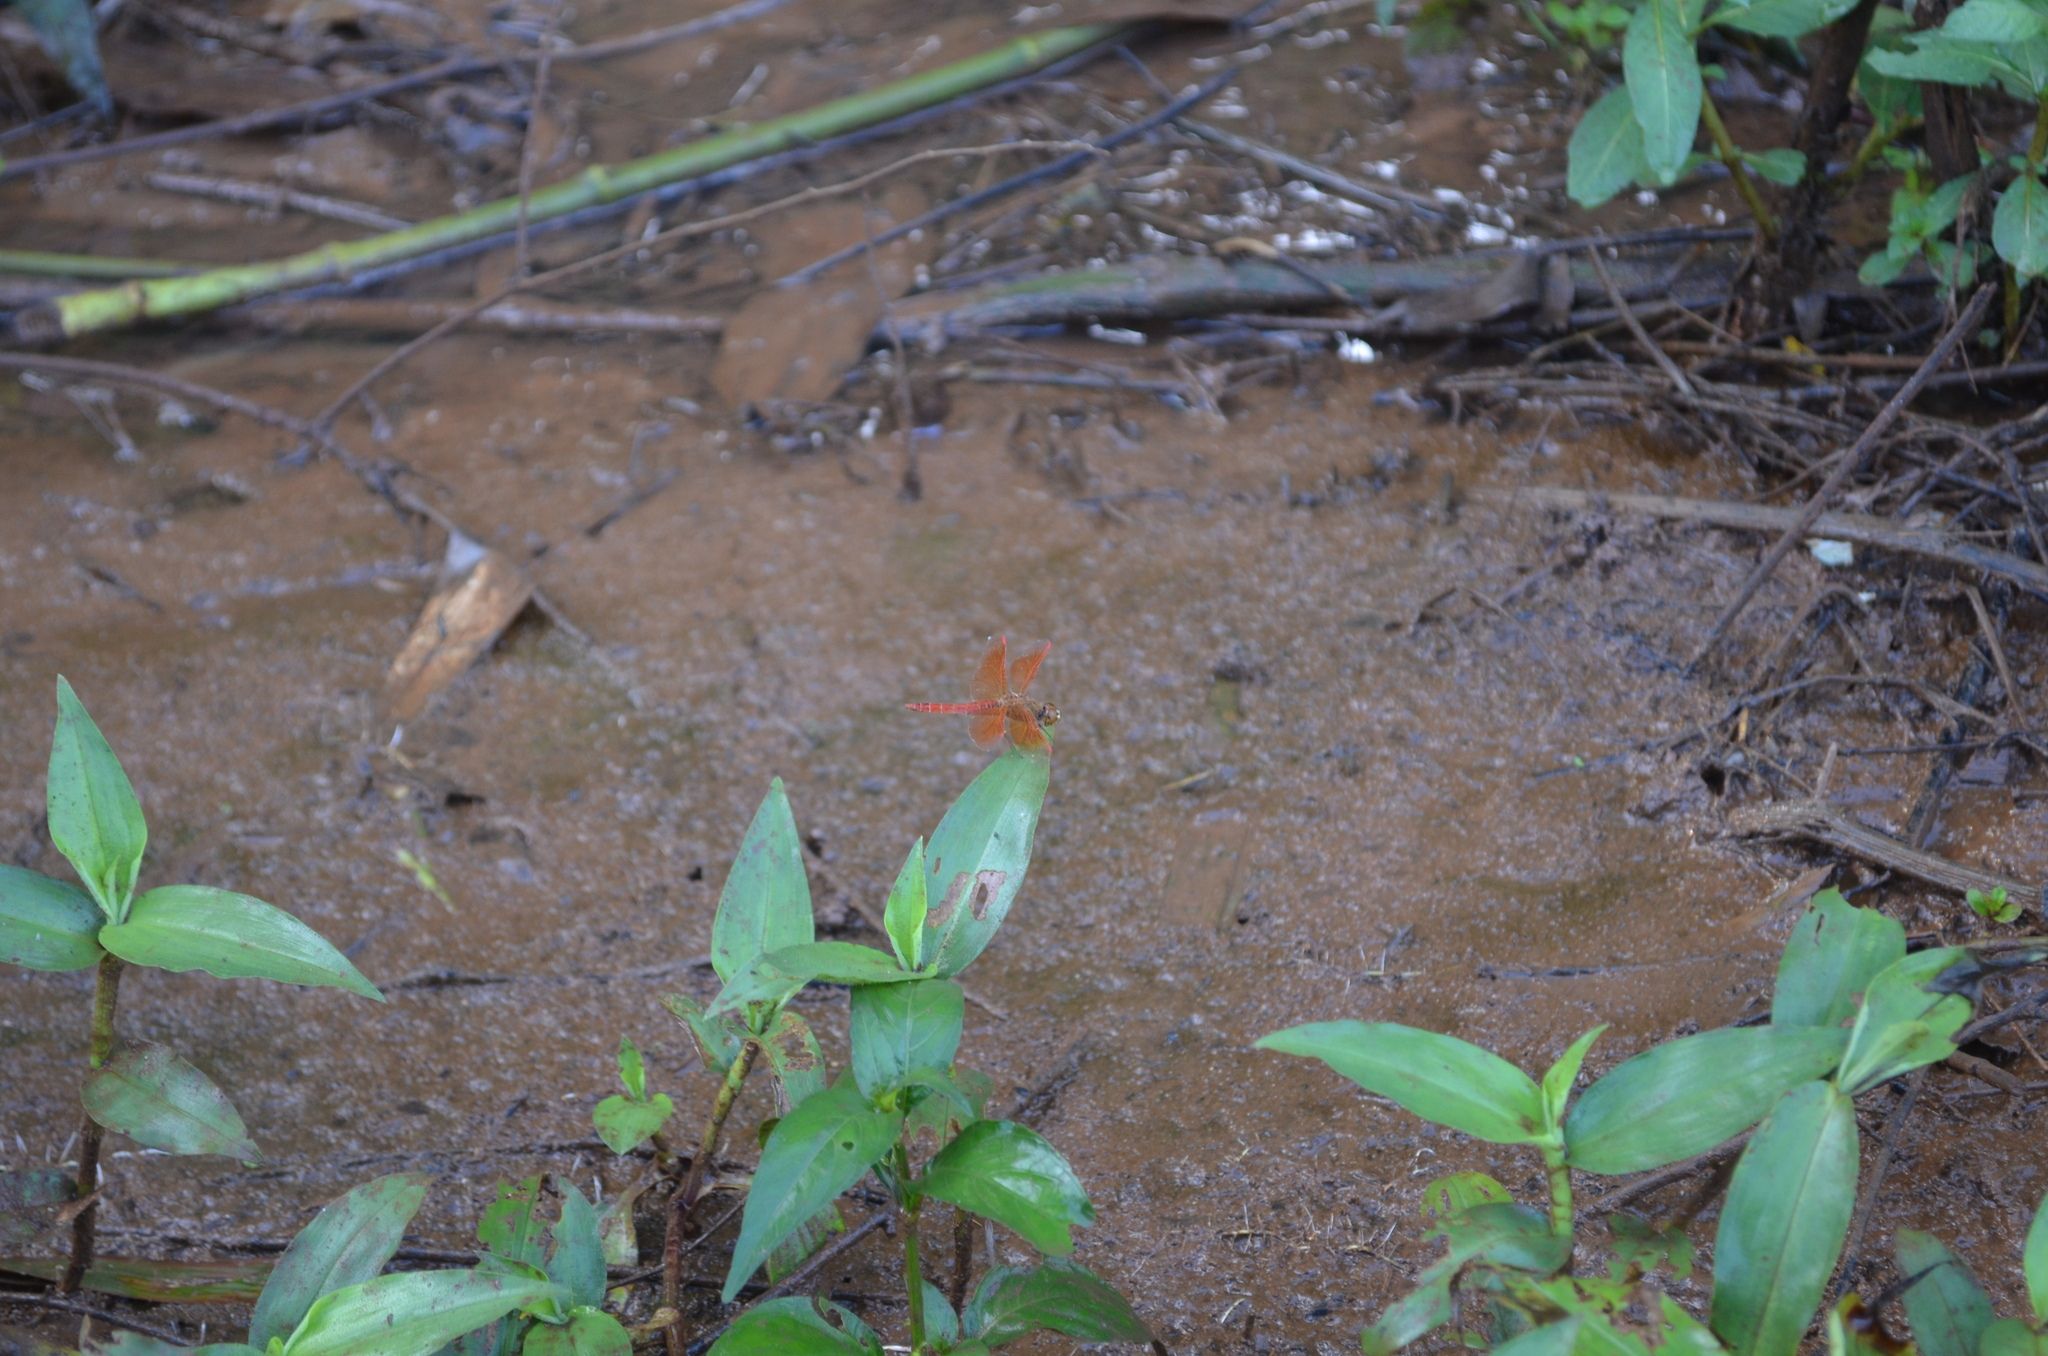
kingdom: Animalia
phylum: Arthropoda
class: Insecta
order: Odonata
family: Libellulidae
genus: Brachythemis
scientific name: Brachythemis contaminata
